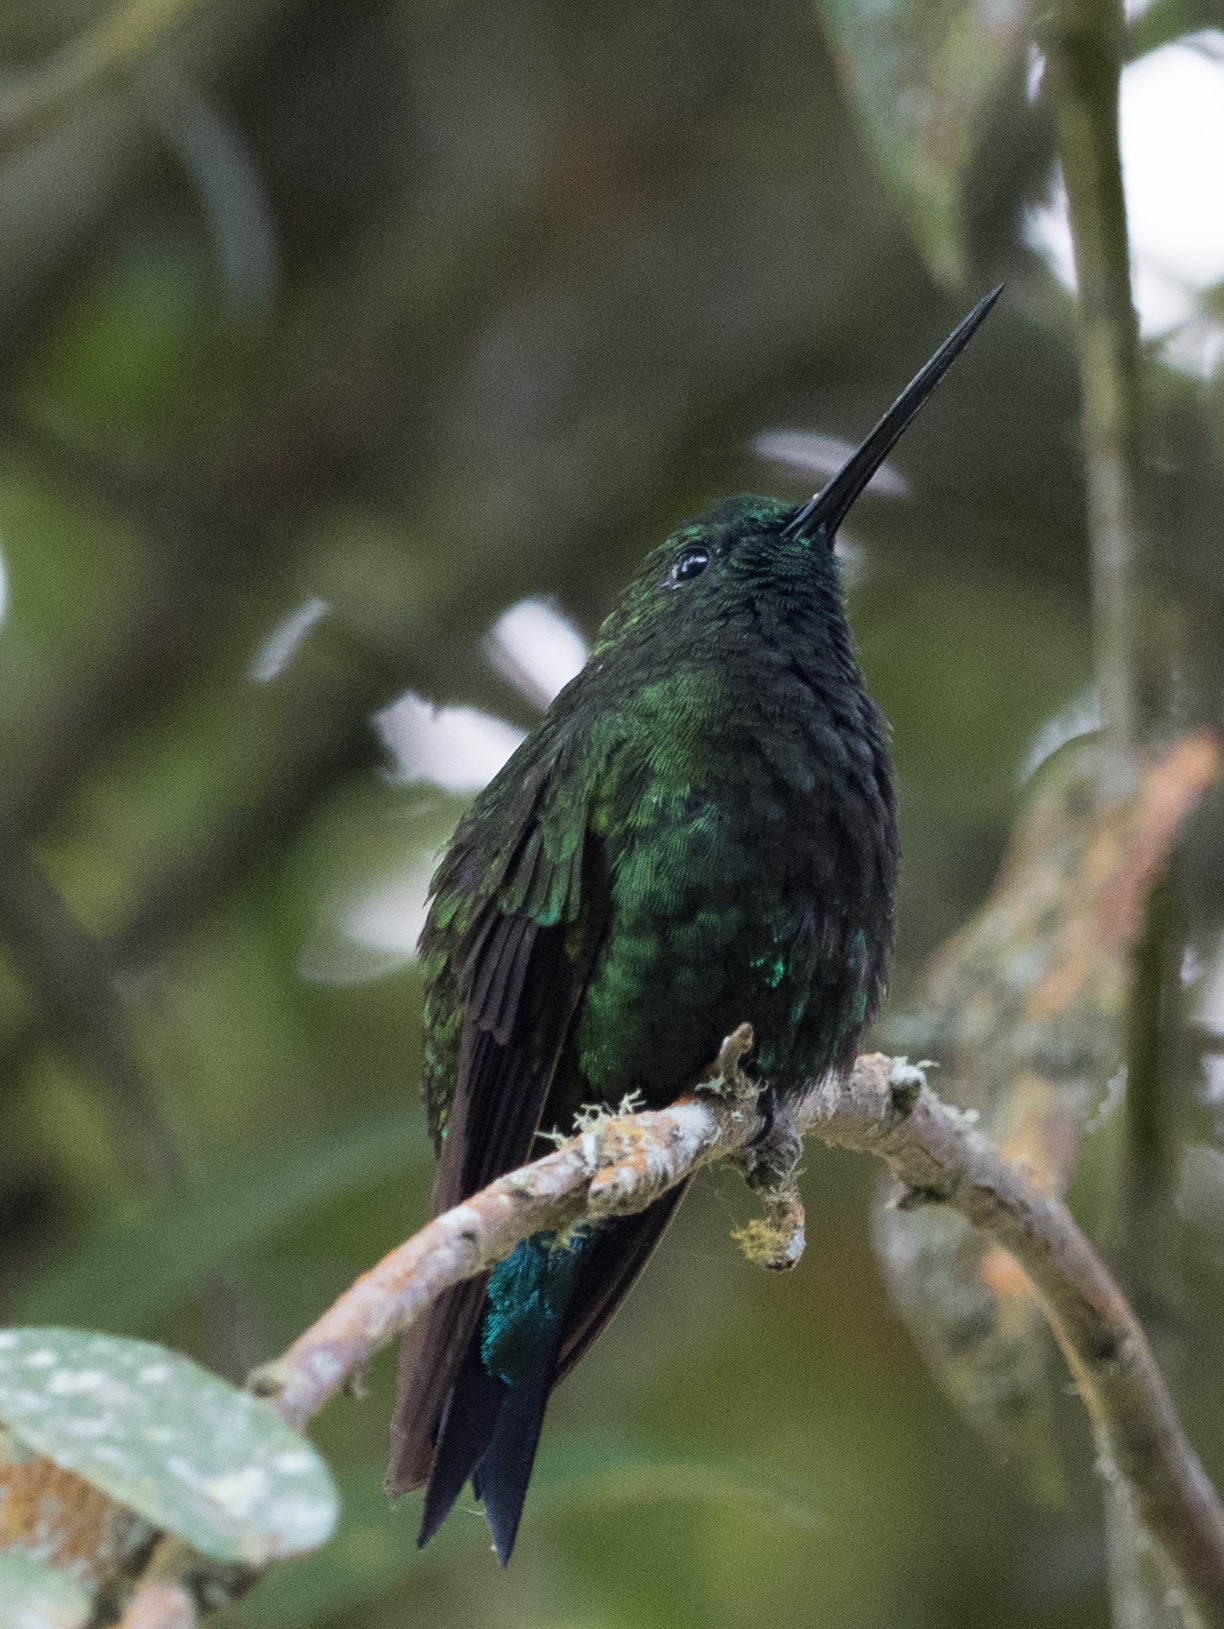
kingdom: Animalia
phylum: Chordata
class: Aves
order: Apodiformes
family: Trochilidae
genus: Eriocnemis
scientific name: Eriocnemis derbyi
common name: Black-thighed puffleg
